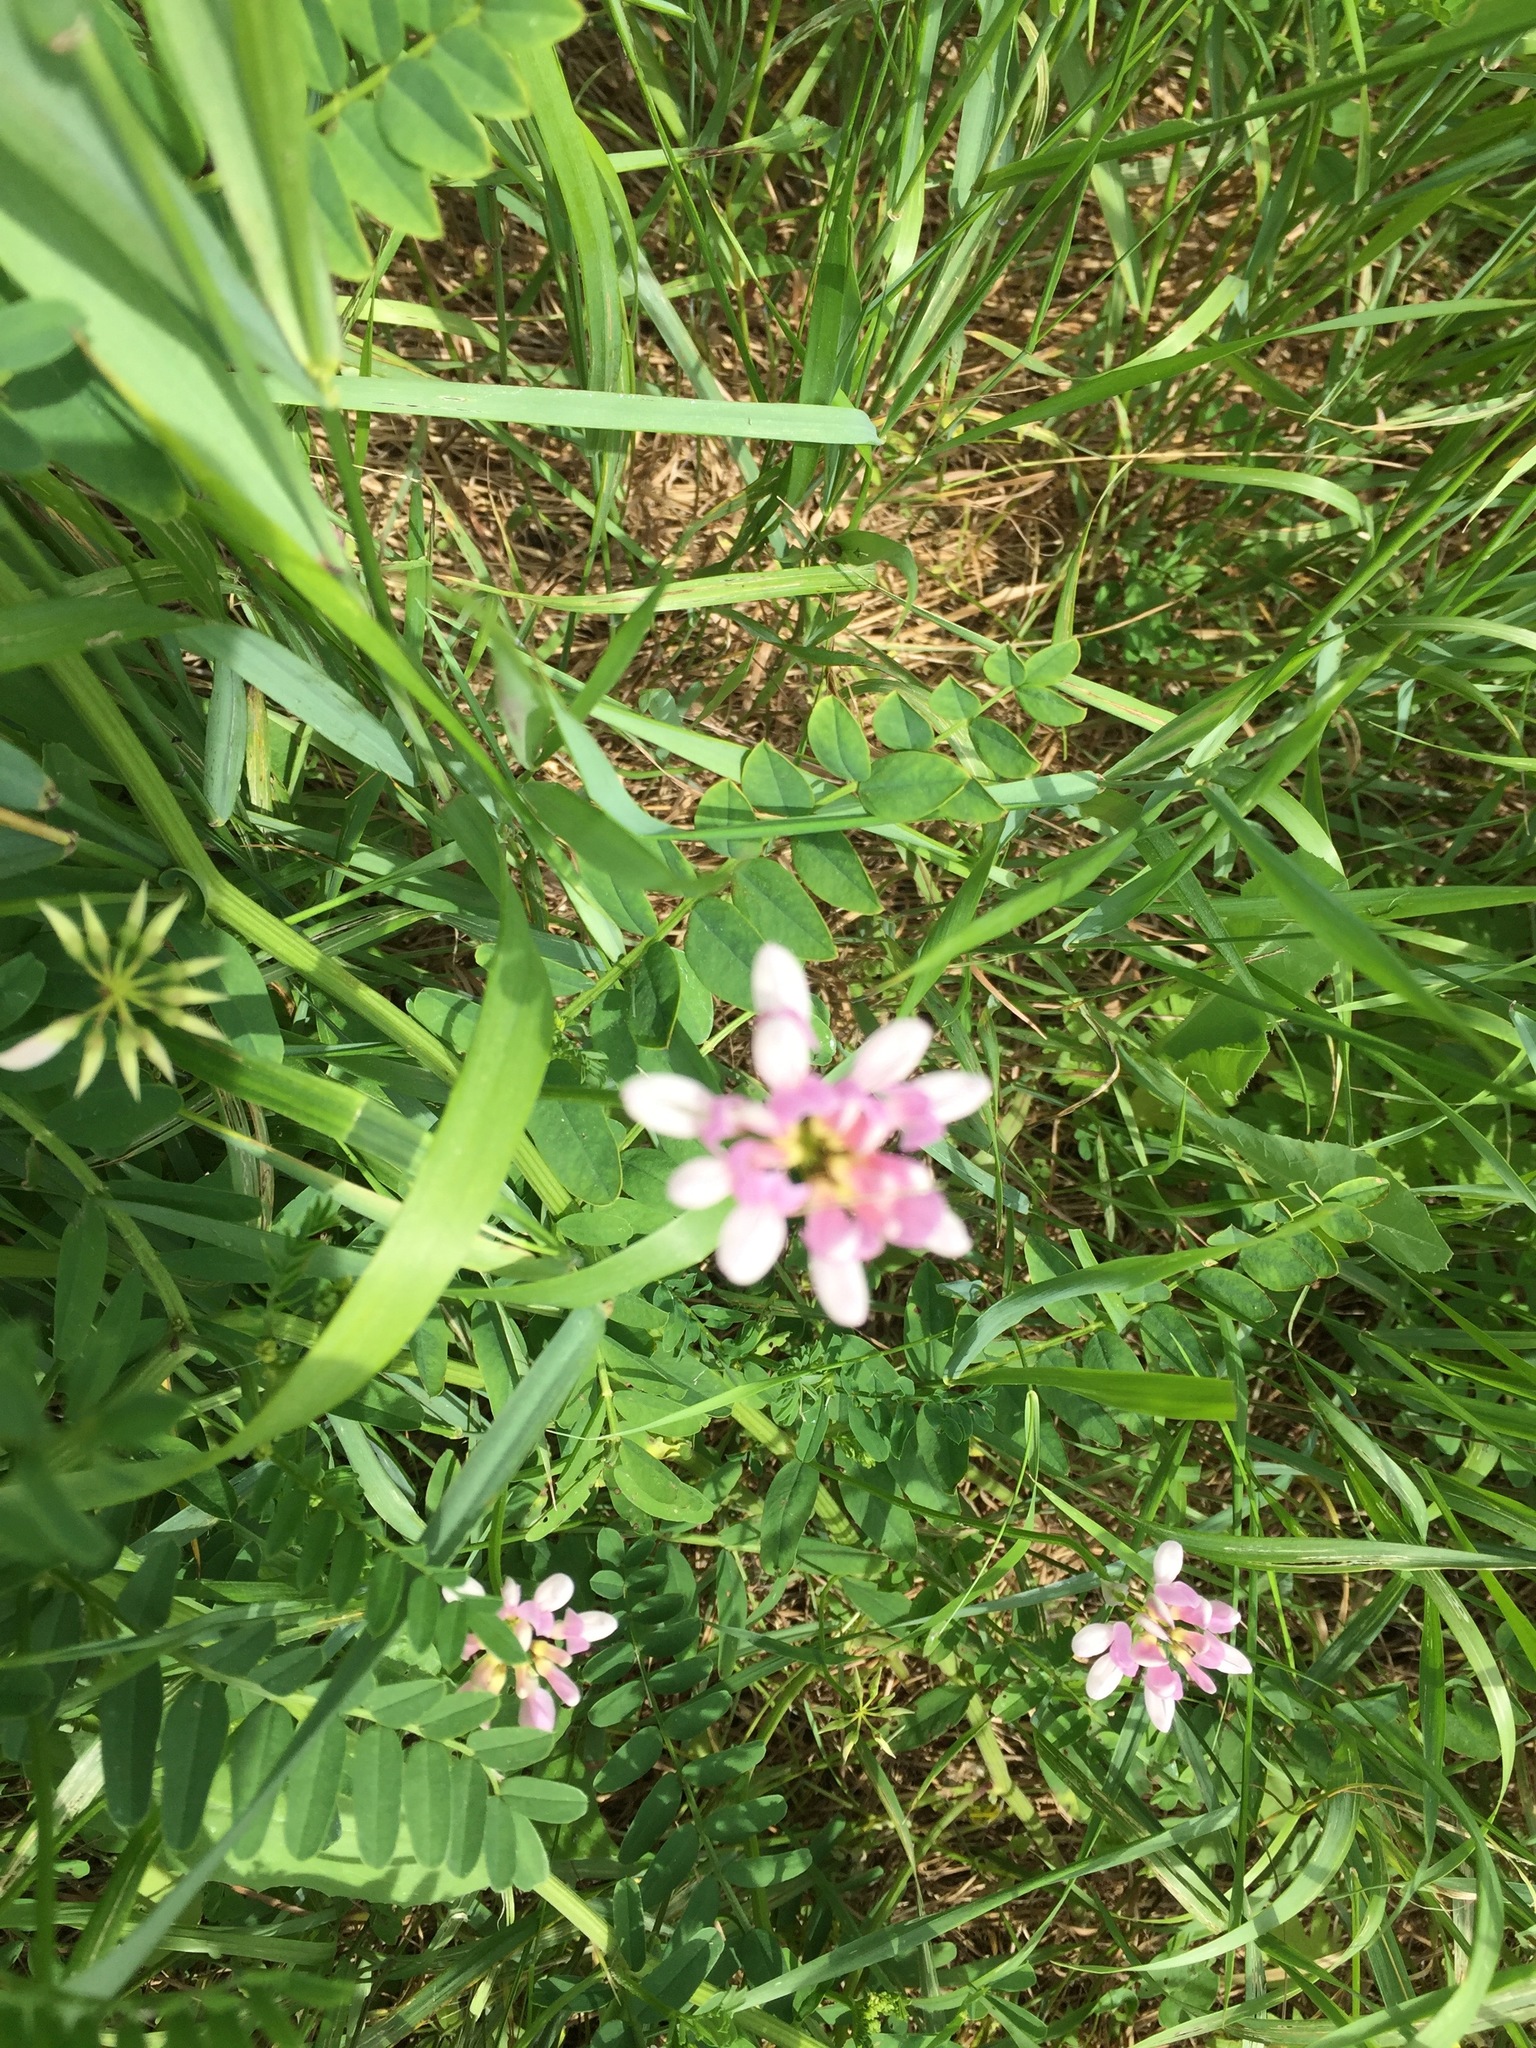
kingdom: Plantae
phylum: Tracheophyta
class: Magnoliopsida
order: Fabales
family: Fabaceae
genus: Coronilla
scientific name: Coronilla varia
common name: Crownvetch
